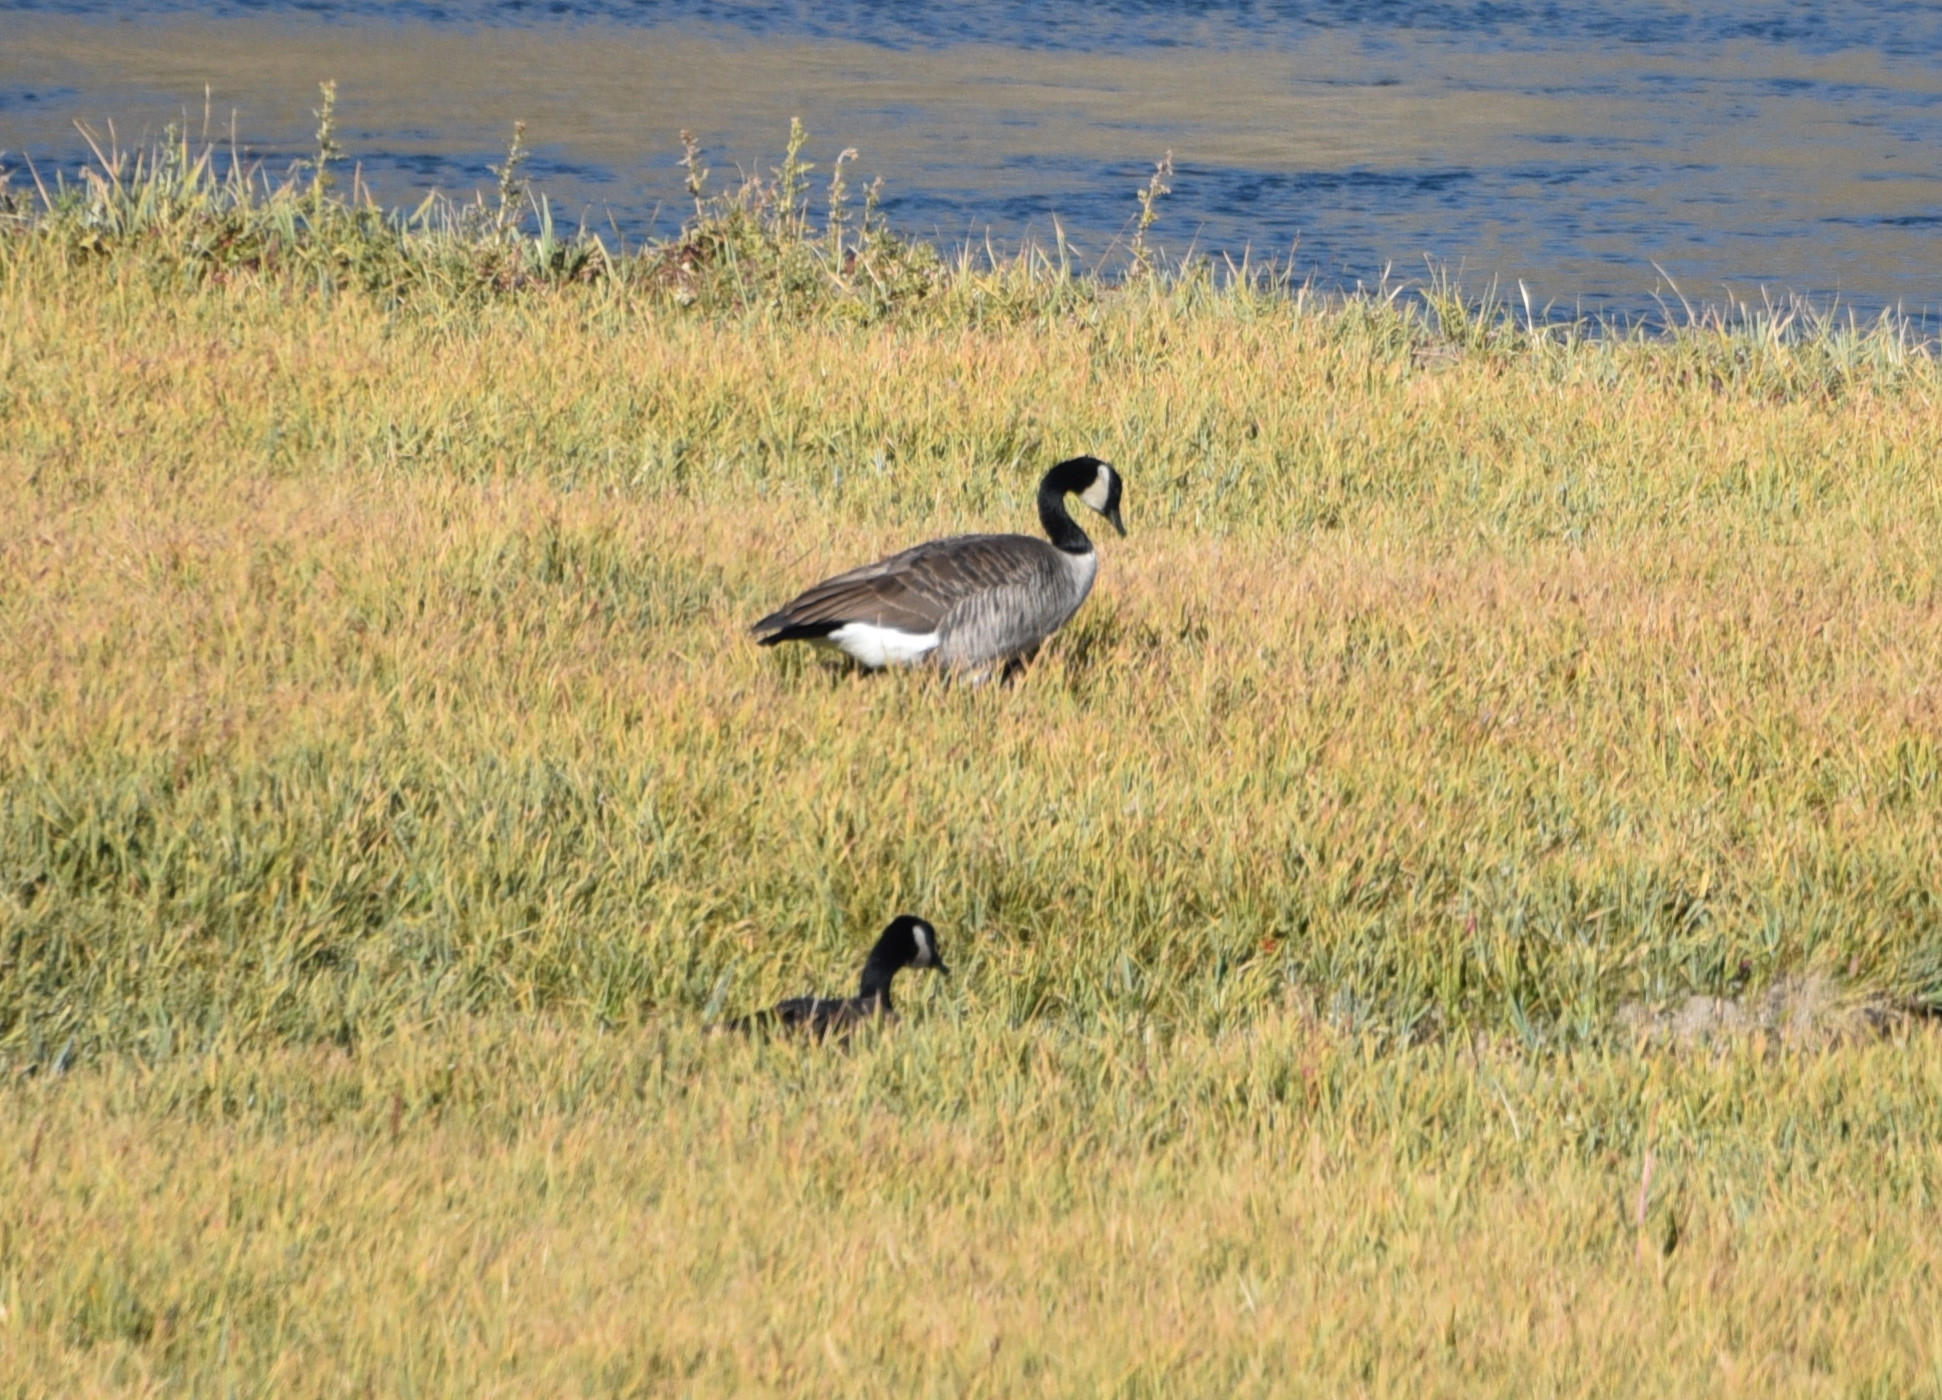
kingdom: Animalia
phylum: Chordata
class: Aves
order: Anseriformes
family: Anatidae
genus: Branta
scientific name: Branta canadensis
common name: Canada goose
